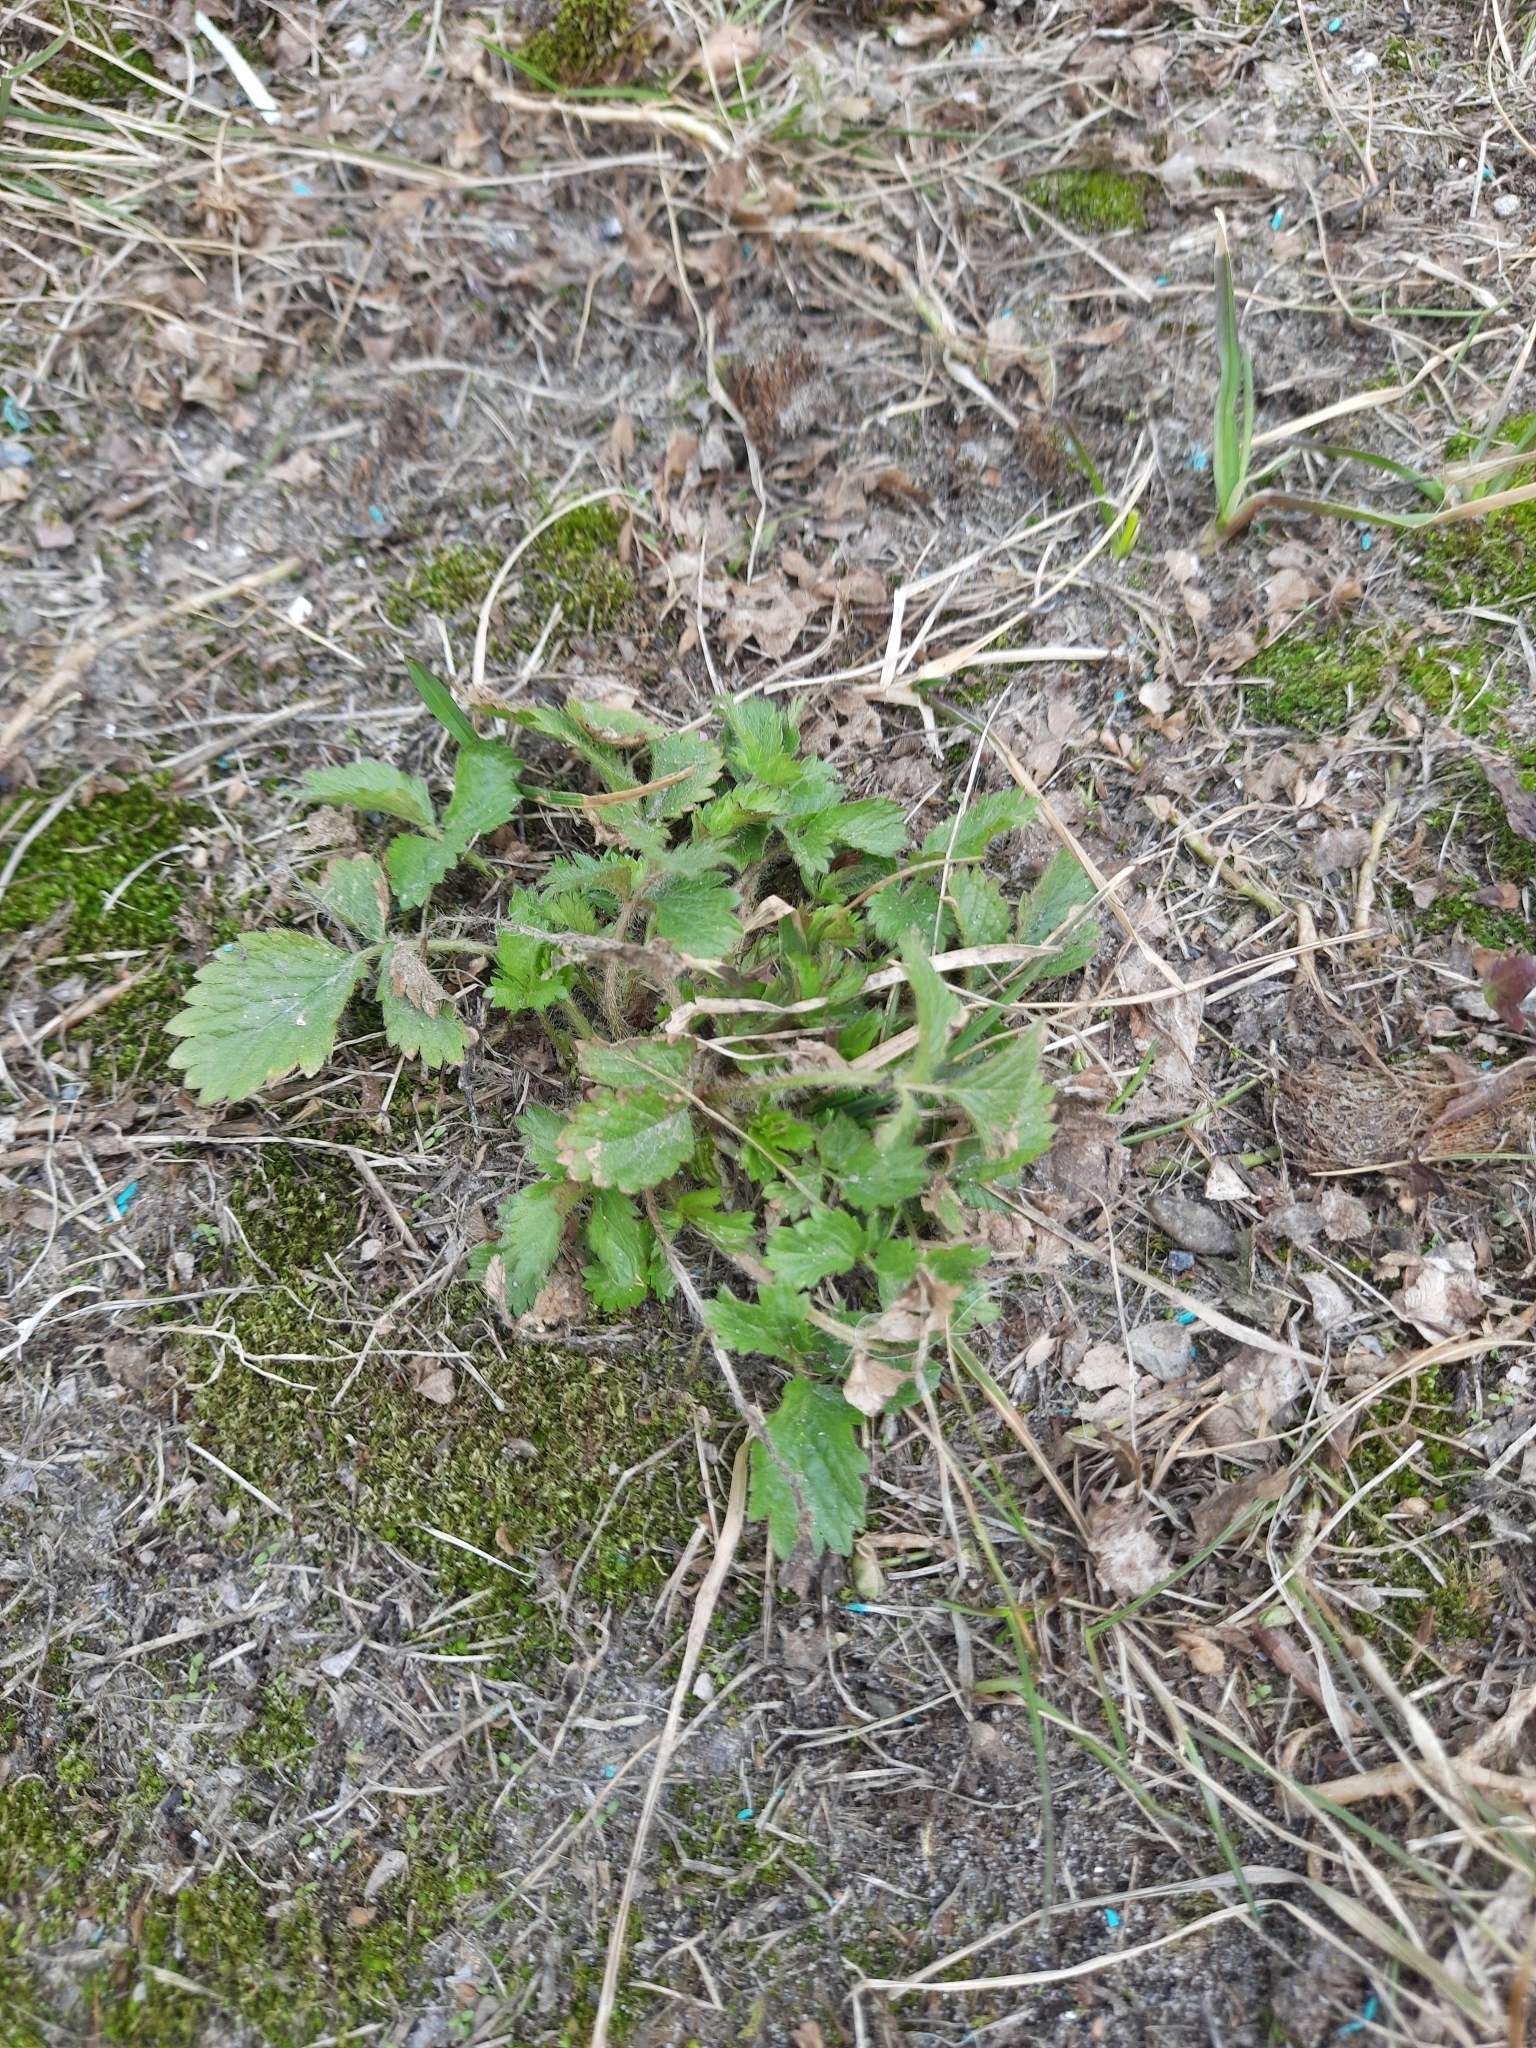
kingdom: Plantae
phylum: Tracheophyta
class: Magnoliopsida
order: Rosales
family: Rosaceae
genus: Potentilla
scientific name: Potentilla norvegica
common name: Ternate-leaved cinquefoil
